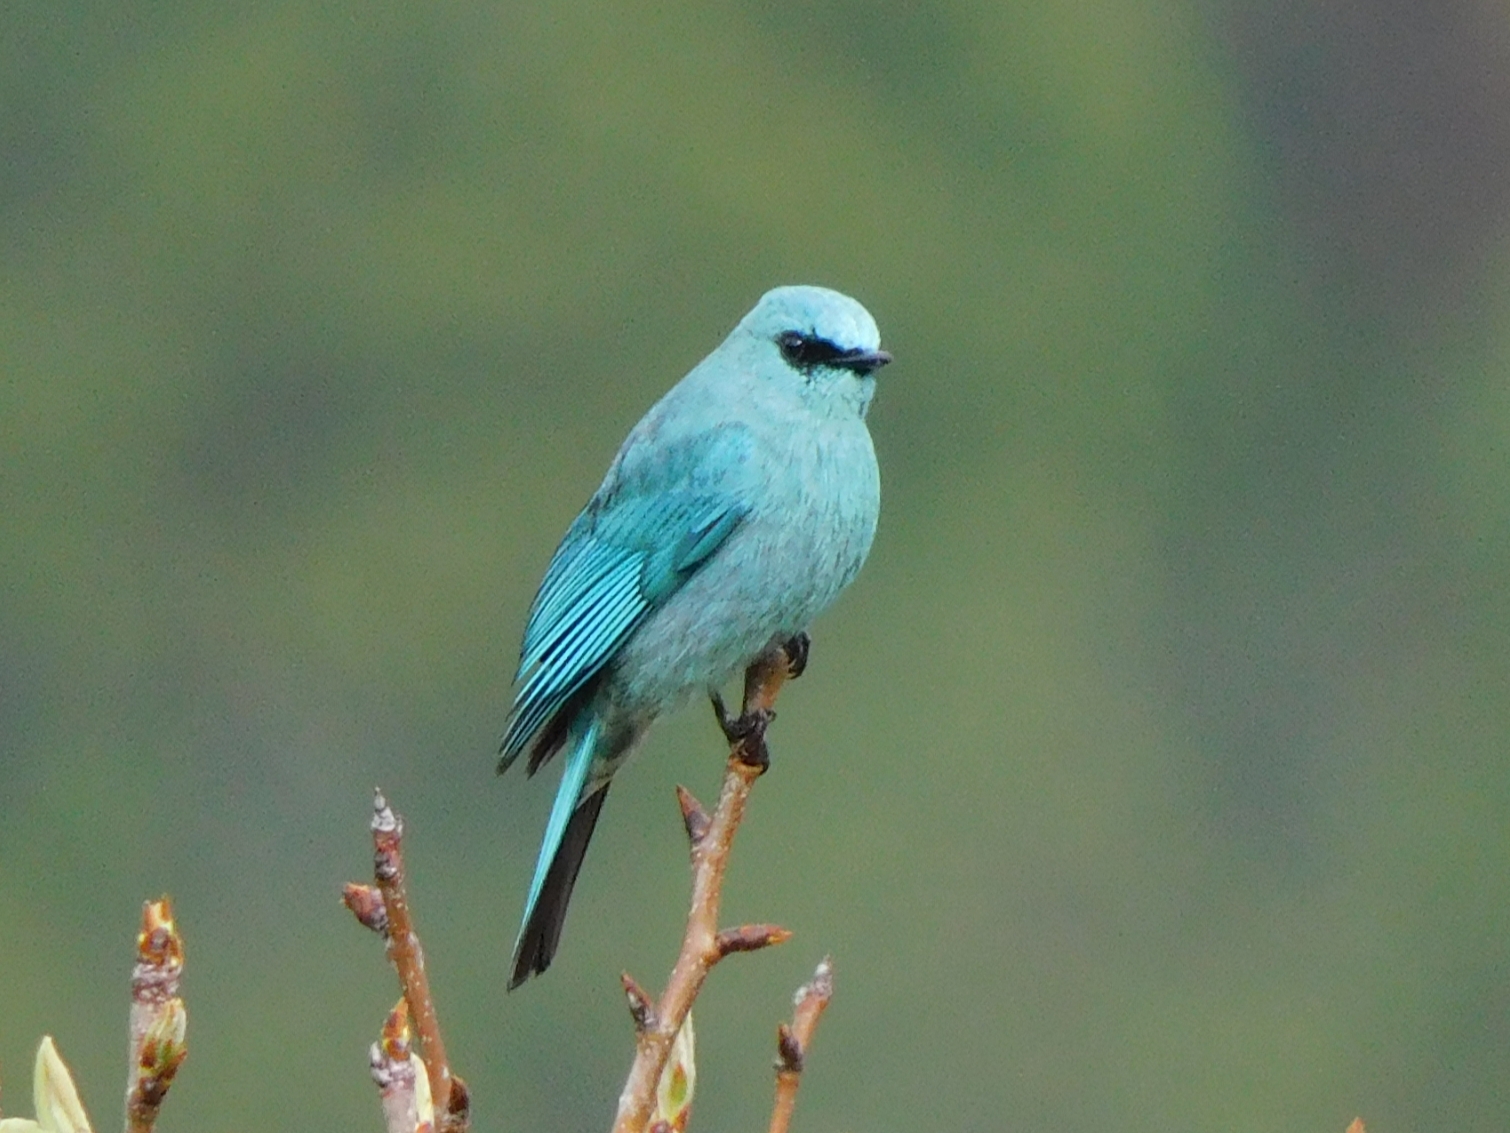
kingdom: Animalia
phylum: Chordata
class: Aves
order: Passeriformes
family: Muscicapidae
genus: Eumyias
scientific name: Eumyias thalassinus
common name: Verditer flycatcher
